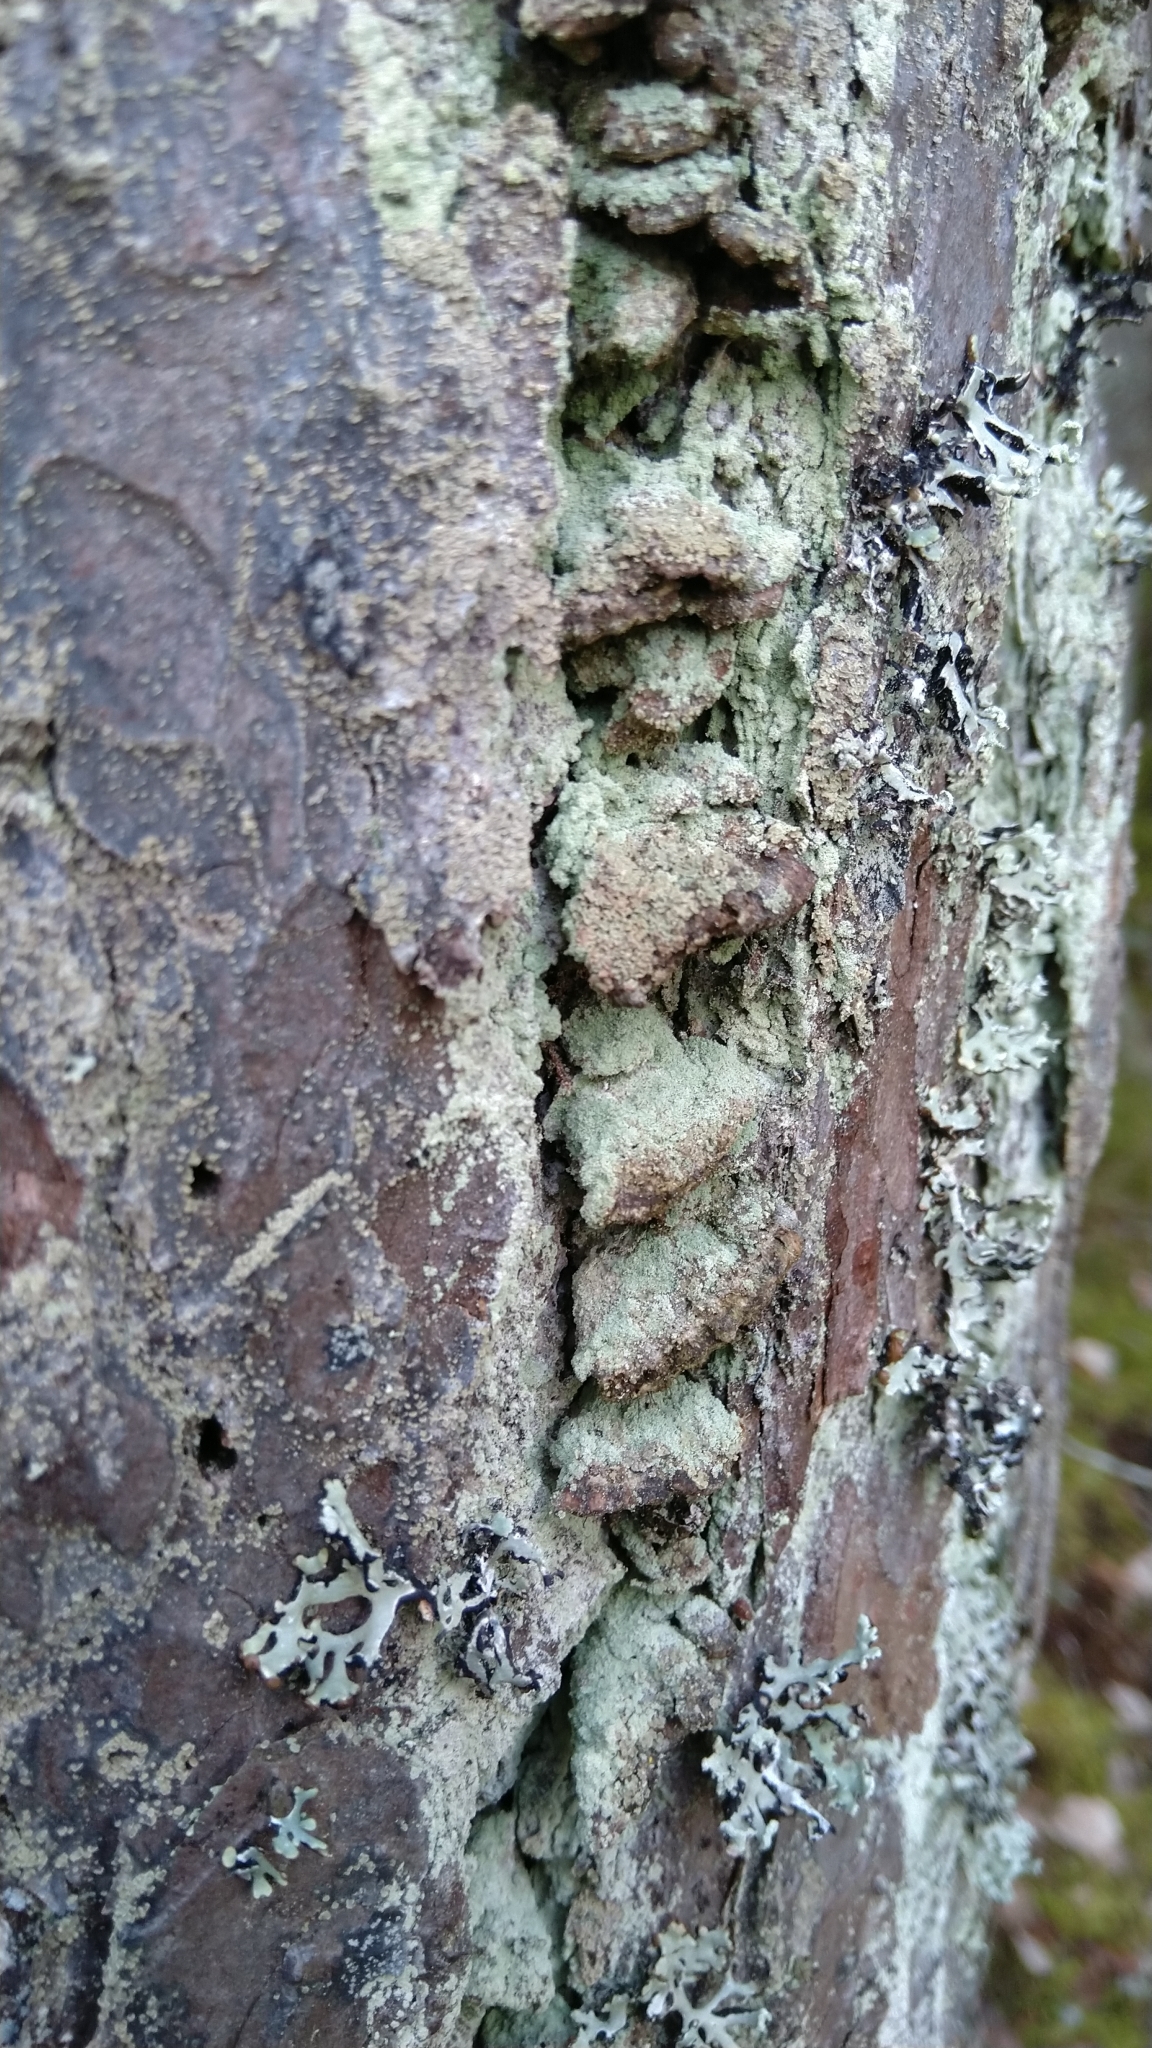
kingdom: Fungi
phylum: Basidiomycota
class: Agaricomycetes
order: Hymenochaetales
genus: Trichaptum
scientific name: Trichaptum abietinum
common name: Purplepore bracket
